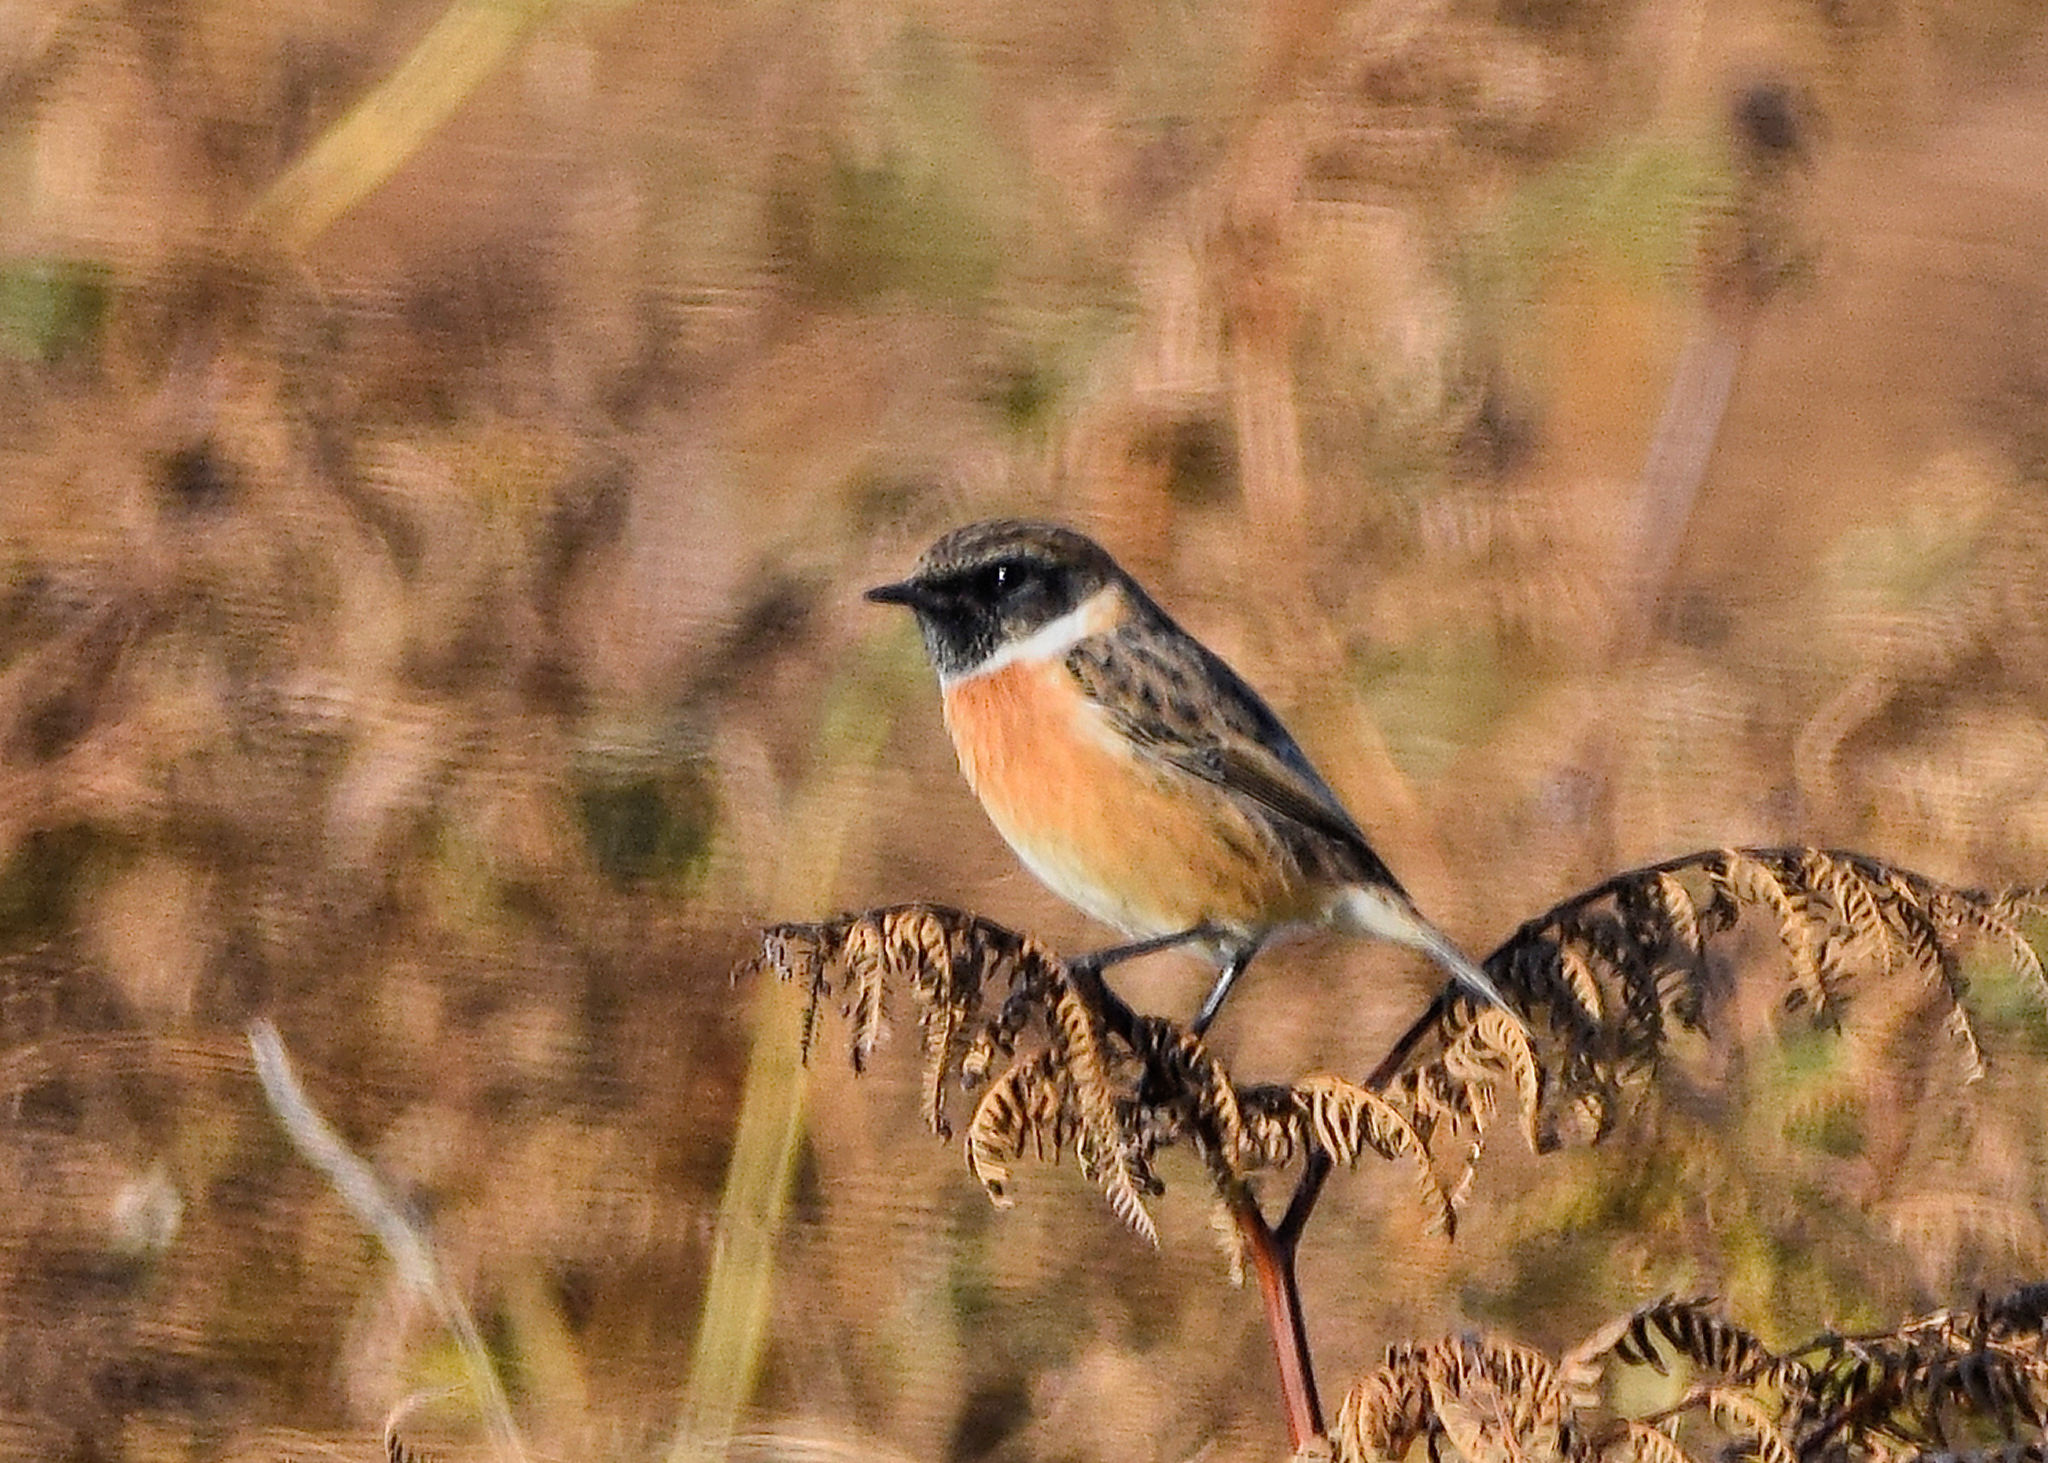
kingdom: Animalia
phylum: Chordata
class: Aves
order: Passeriformes
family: Muscicapidae
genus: Saxicola
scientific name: Saxicola rubicola
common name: European stonechat
